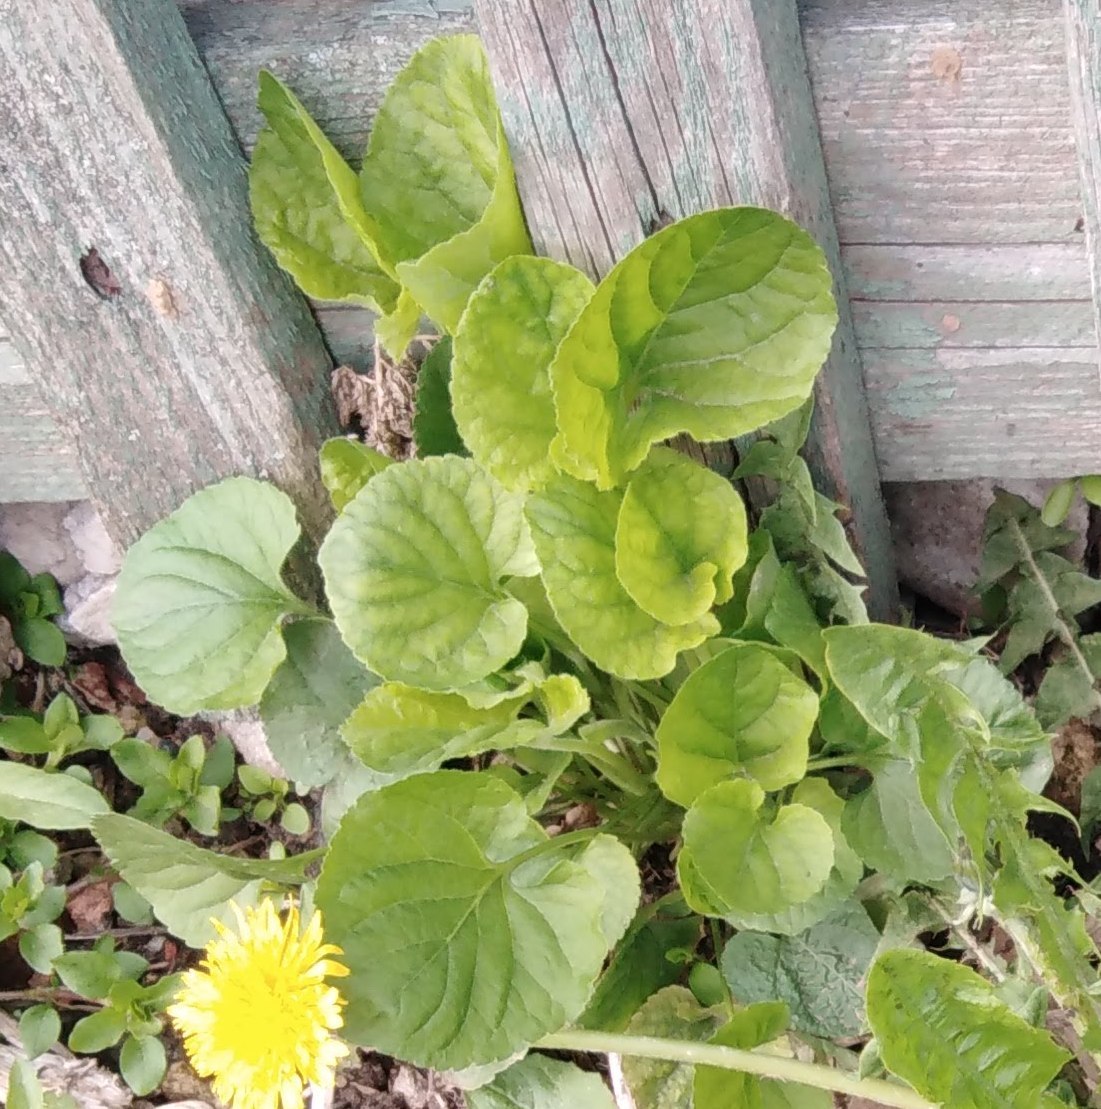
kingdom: Plantae
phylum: Tracheophyta
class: Magnoliopsida
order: Malpighiales
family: Violaceae
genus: Viola
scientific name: Viola odorata
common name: Sweet violet
